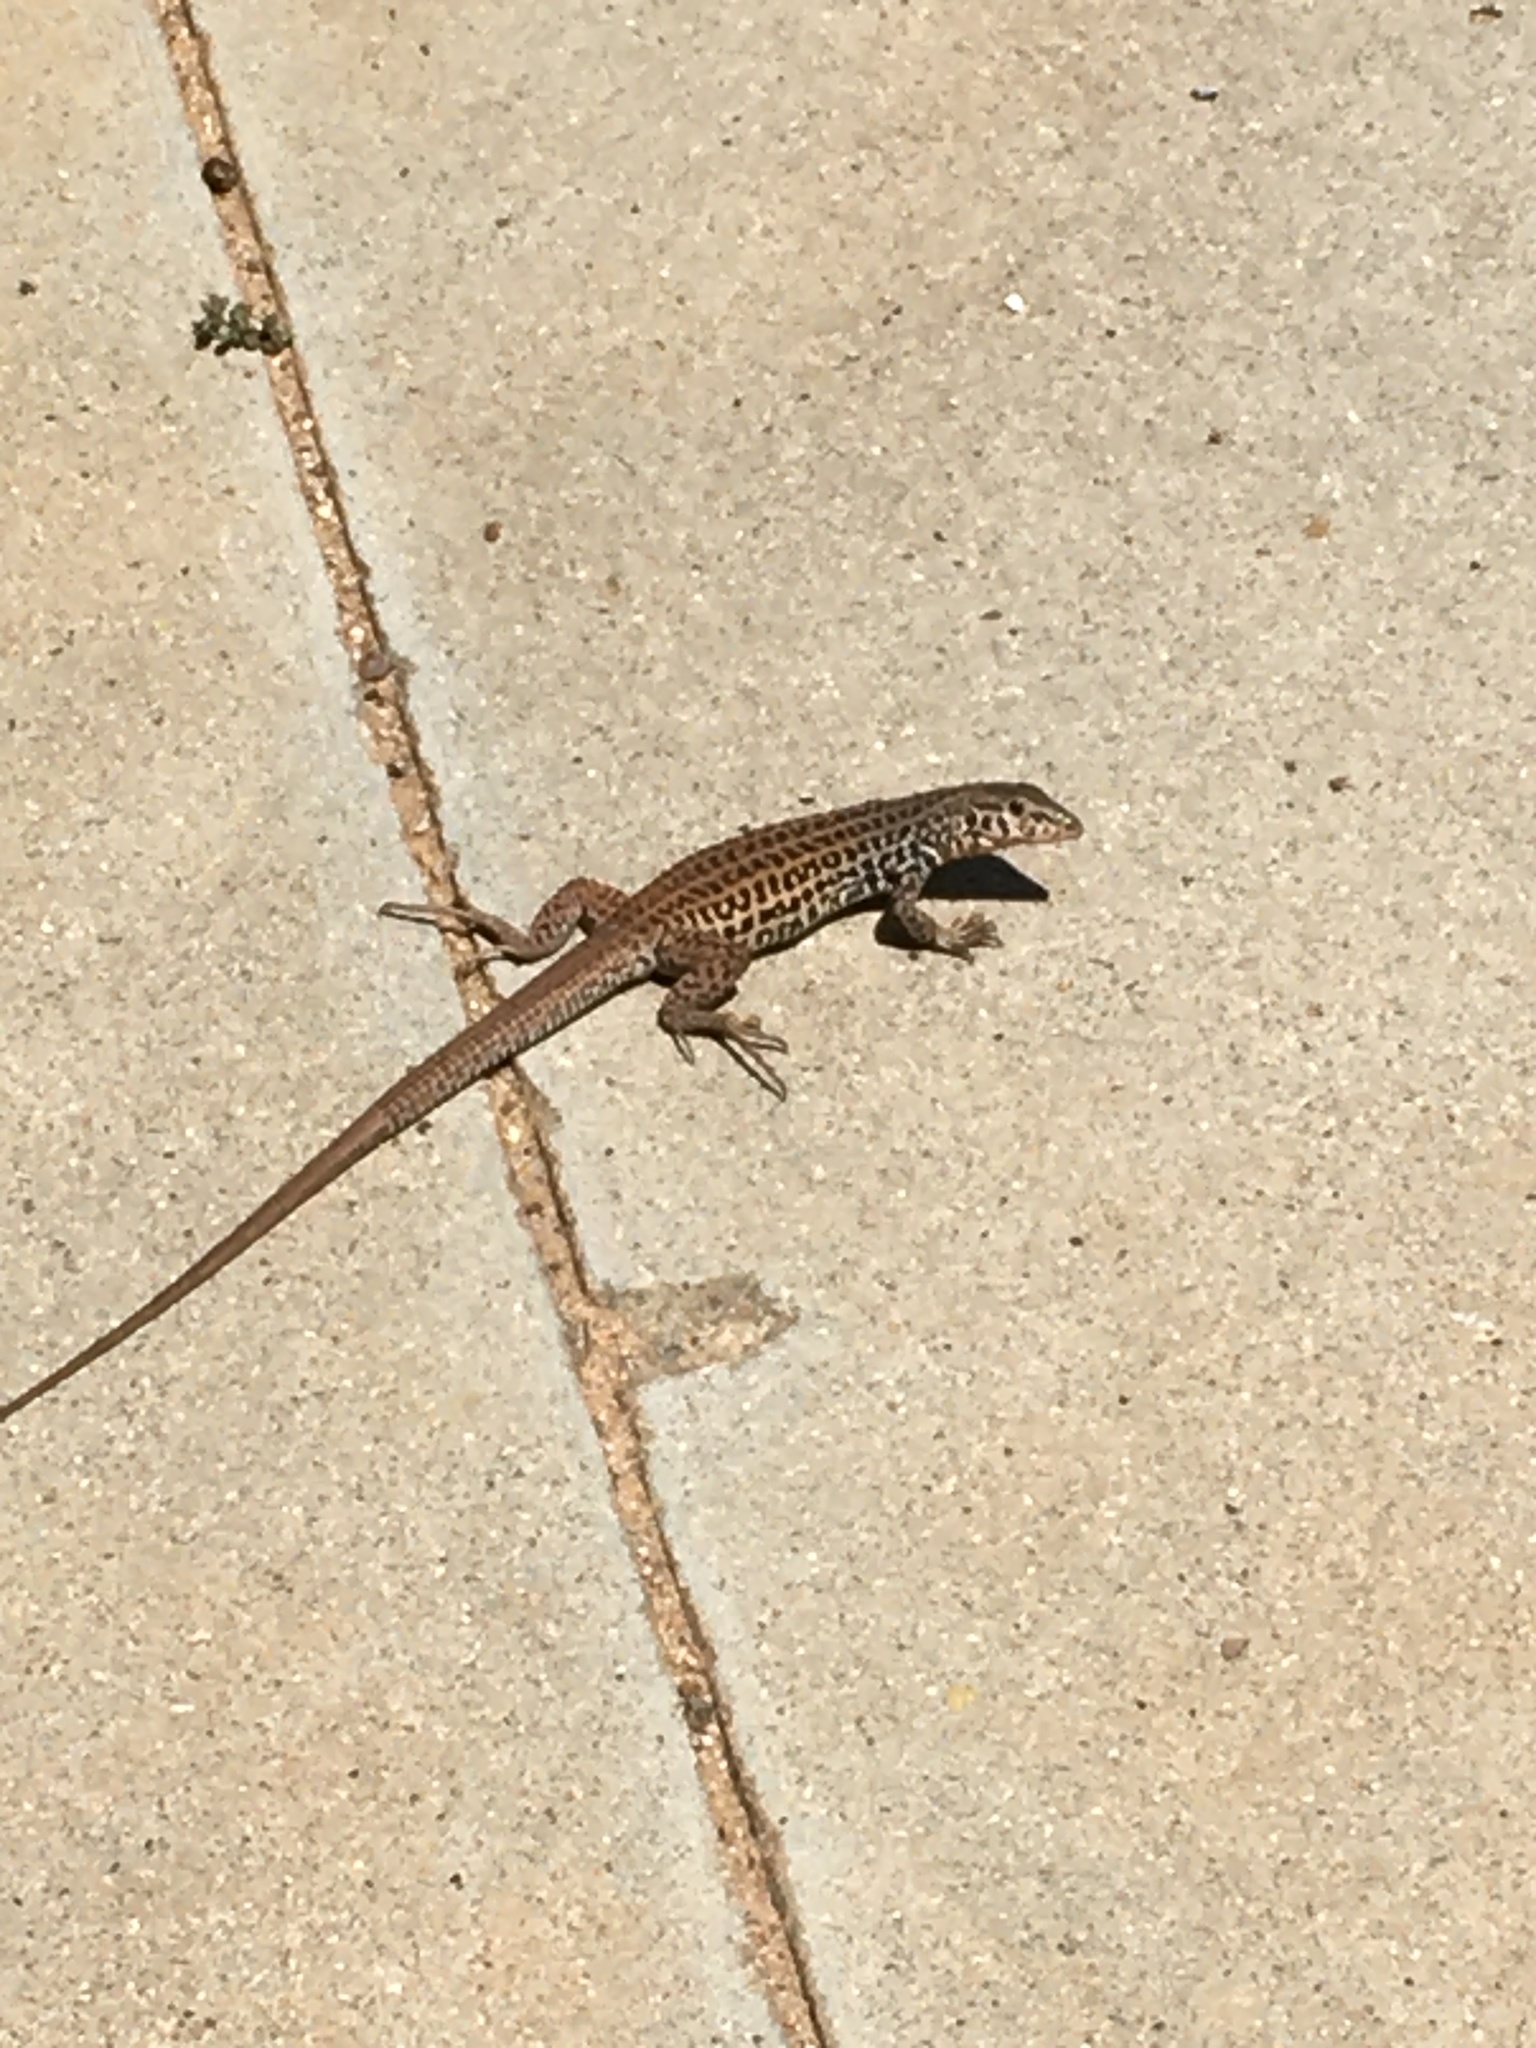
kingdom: Animalia
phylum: Chordata
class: Squamata
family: Teiidae
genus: Aspidoscelis
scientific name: Aspidoscelis tigris
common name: Tiger whiptail
